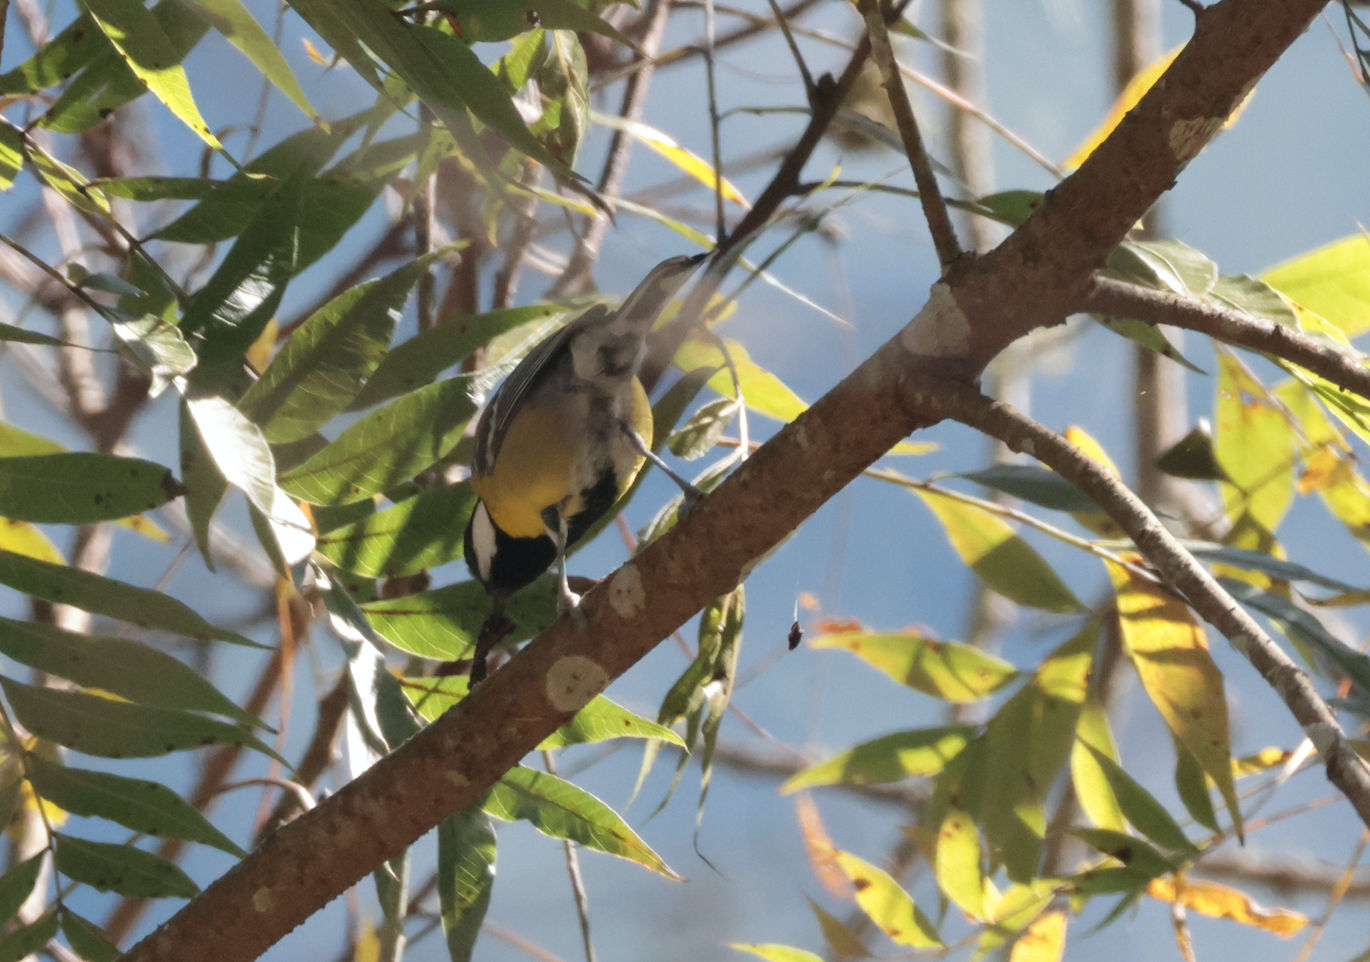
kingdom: Animalia
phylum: Chordata
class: Aves
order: Passeriformes
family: Paridae
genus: Parus
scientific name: Parus monticolus
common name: Green-backed tit
